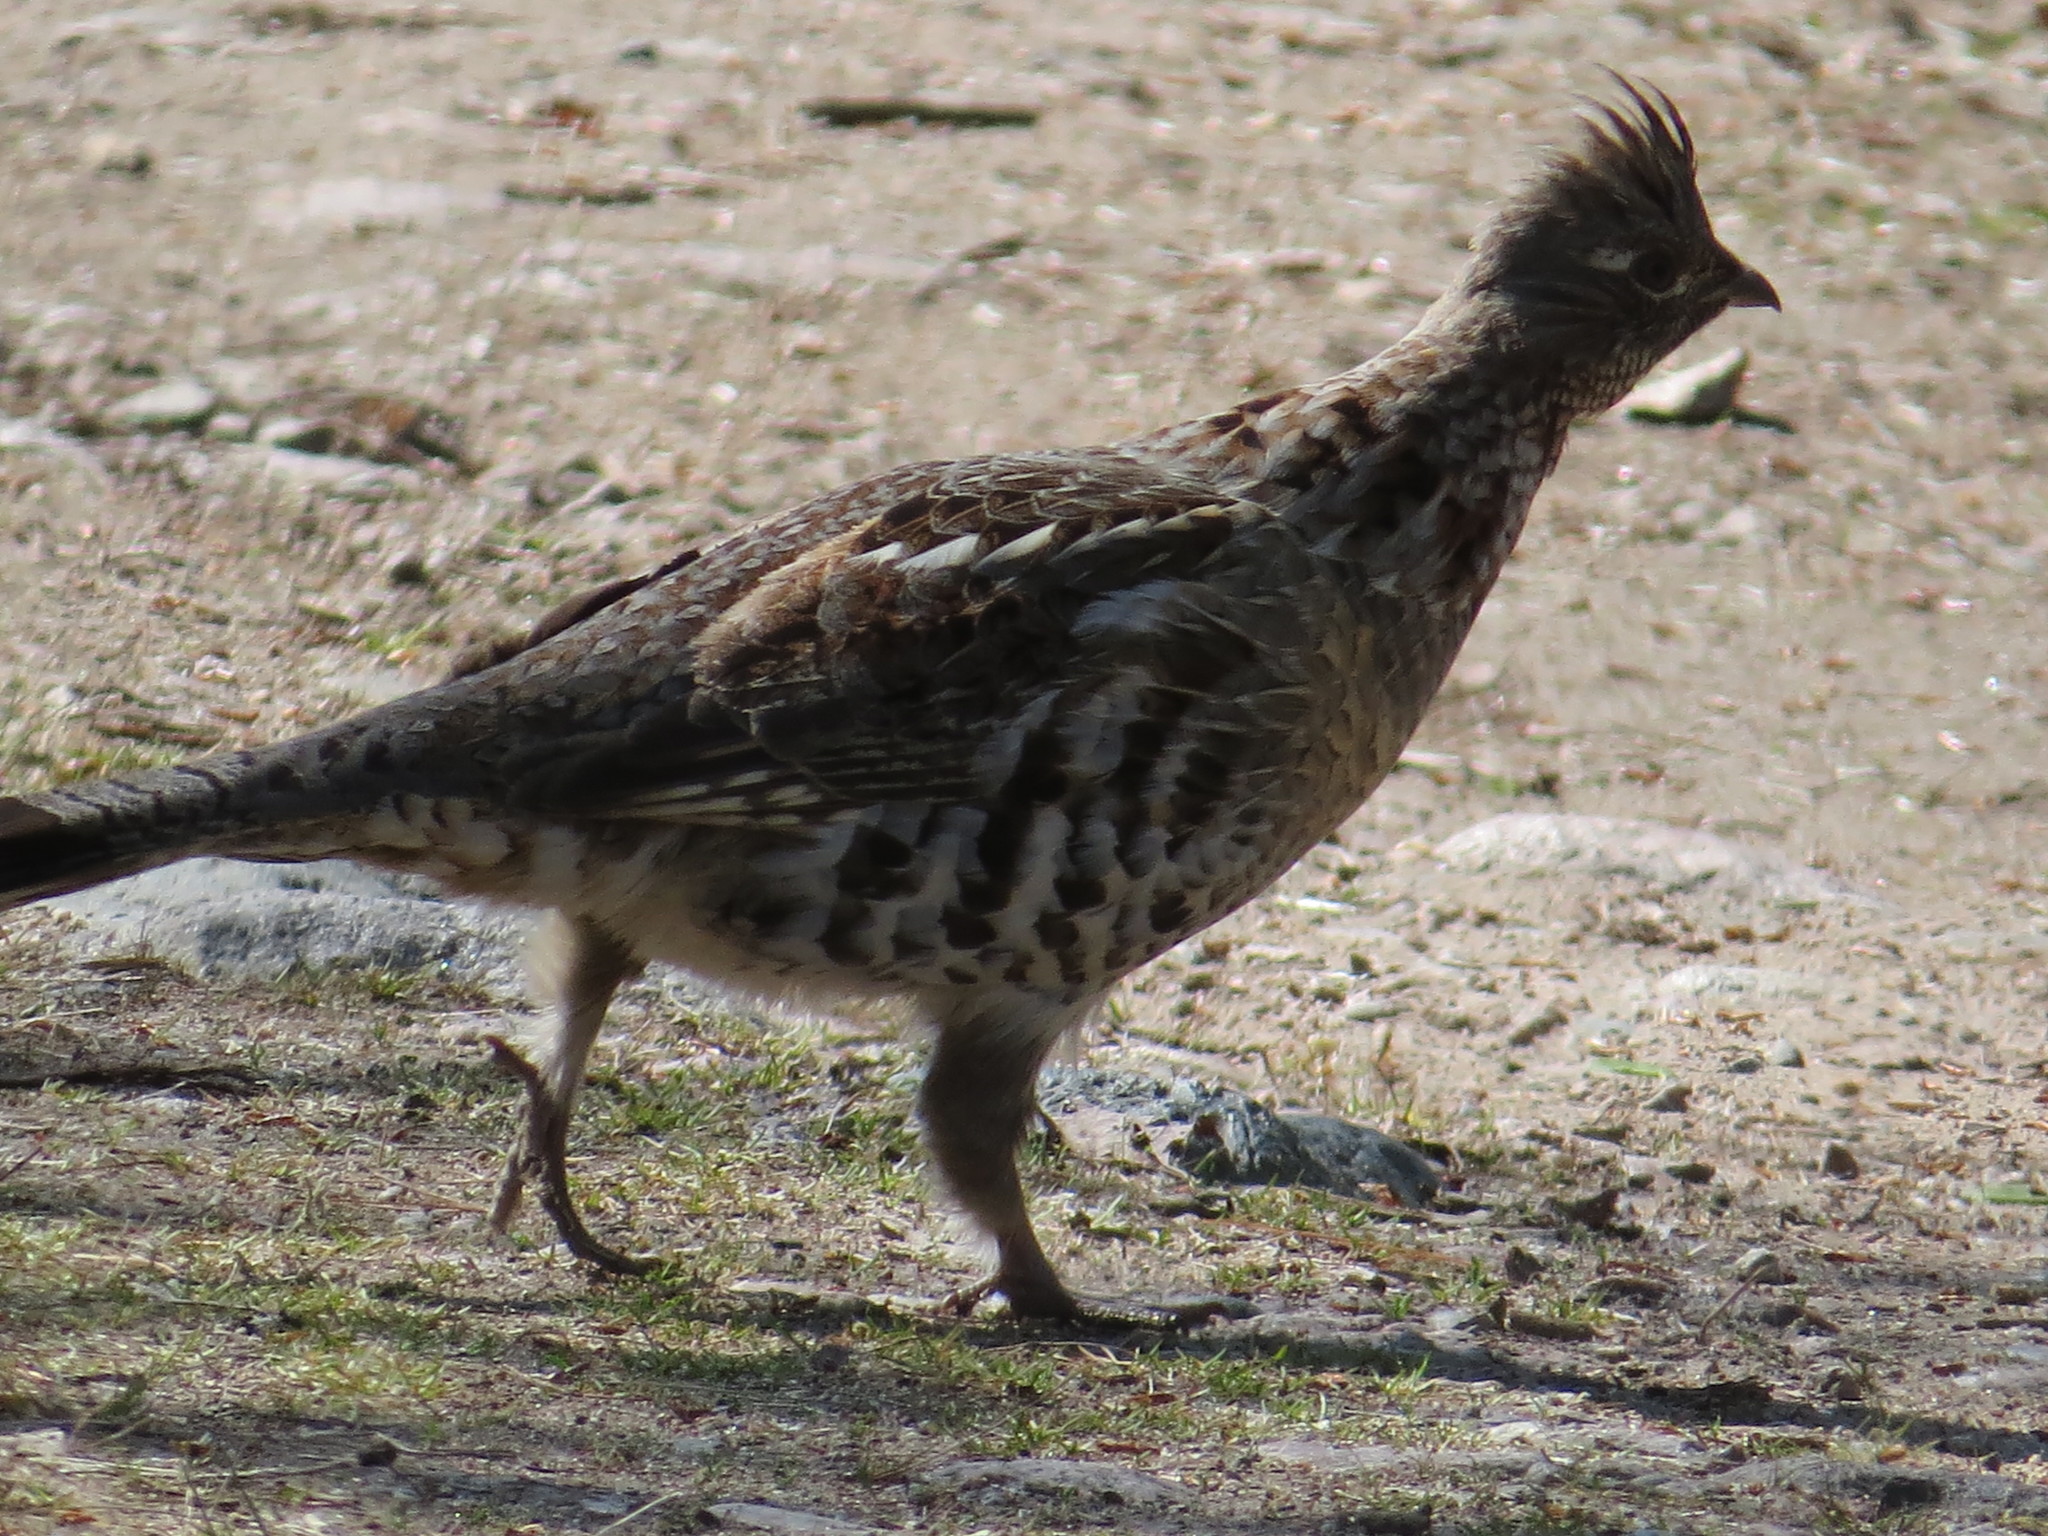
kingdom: Animalia
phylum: Chordata
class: Aves
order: Galliformes
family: Phasianidae
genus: Bonasa
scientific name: Bonasa umbellus
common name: Ruffed grouse
